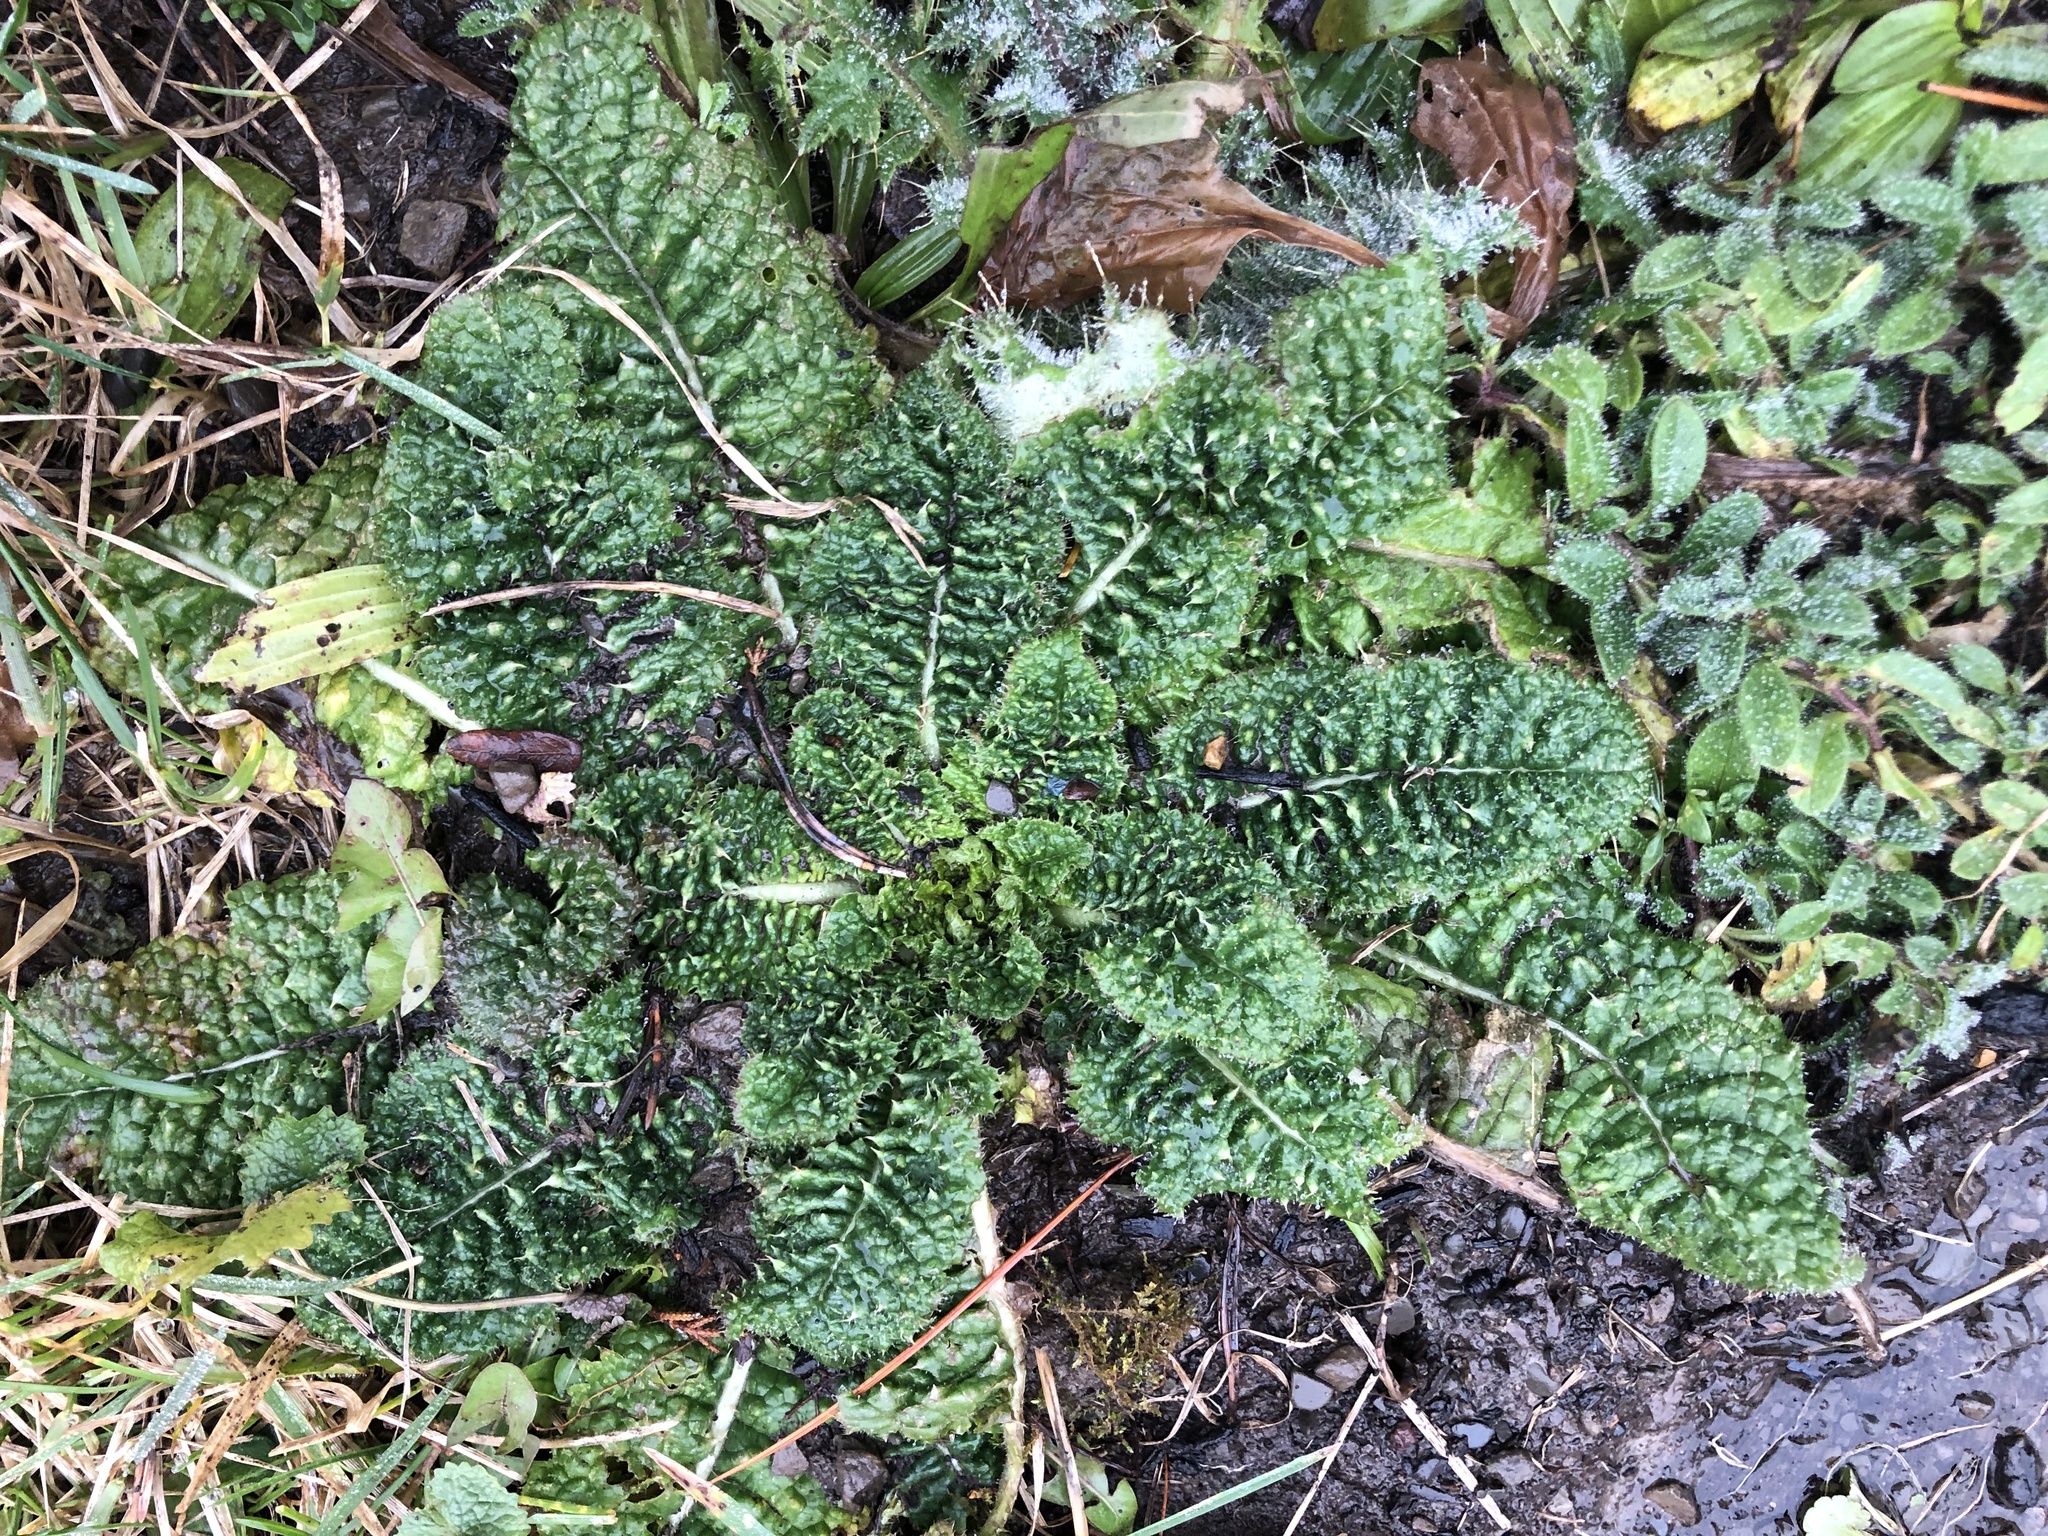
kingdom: Plantae
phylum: Tracheophyta
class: Magnoliopsida
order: Lamiales
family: Scrophulariaceae
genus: Verbascum
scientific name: Verbascum blattaria
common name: Moth mullein
